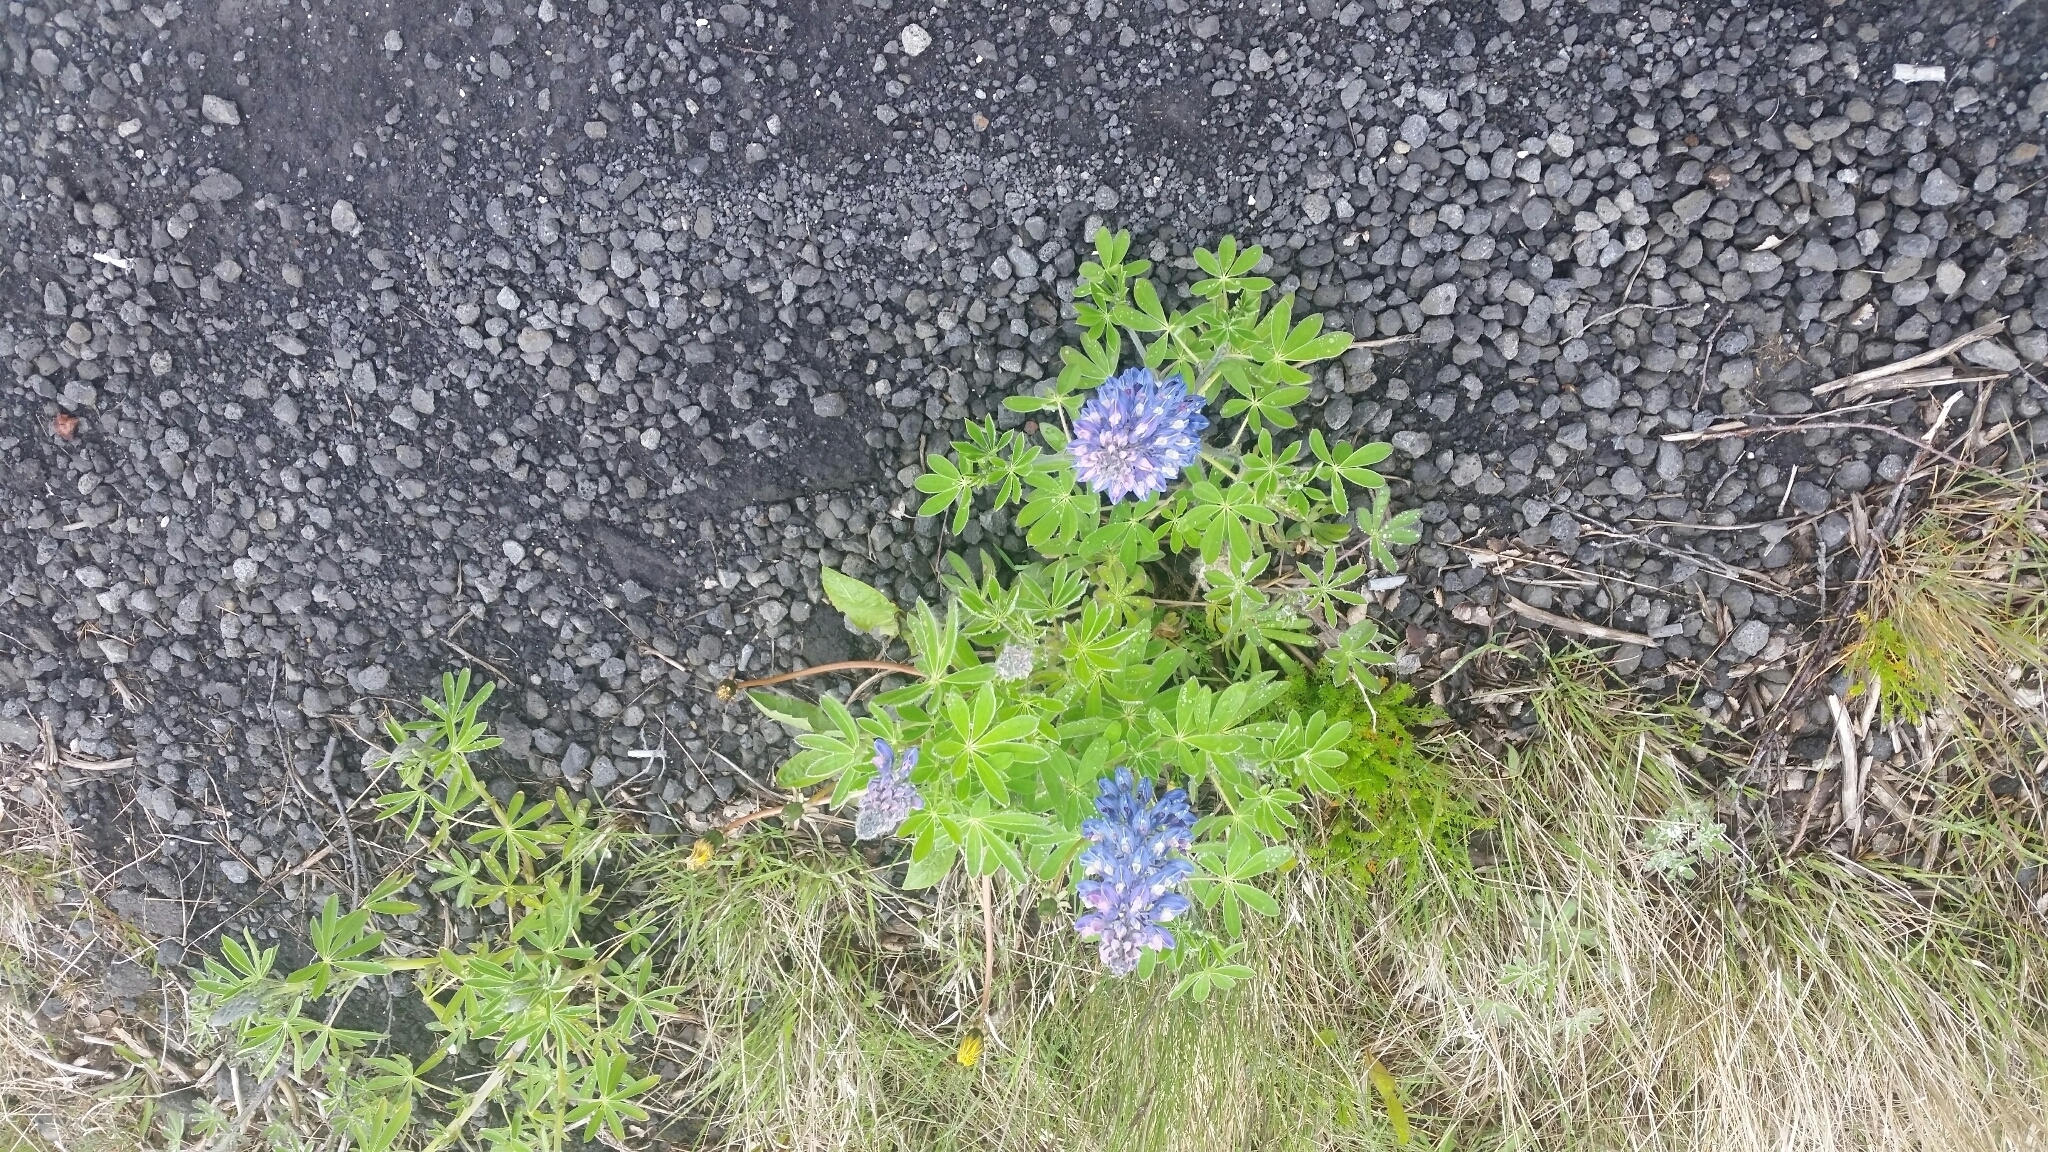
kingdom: Plantae
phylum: Tracheophyta
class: Magnoliopsida
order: Fabales
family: Fabaceae
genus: Lupinus
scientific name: Lupinus nootkatensis
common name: Nootka lupine
